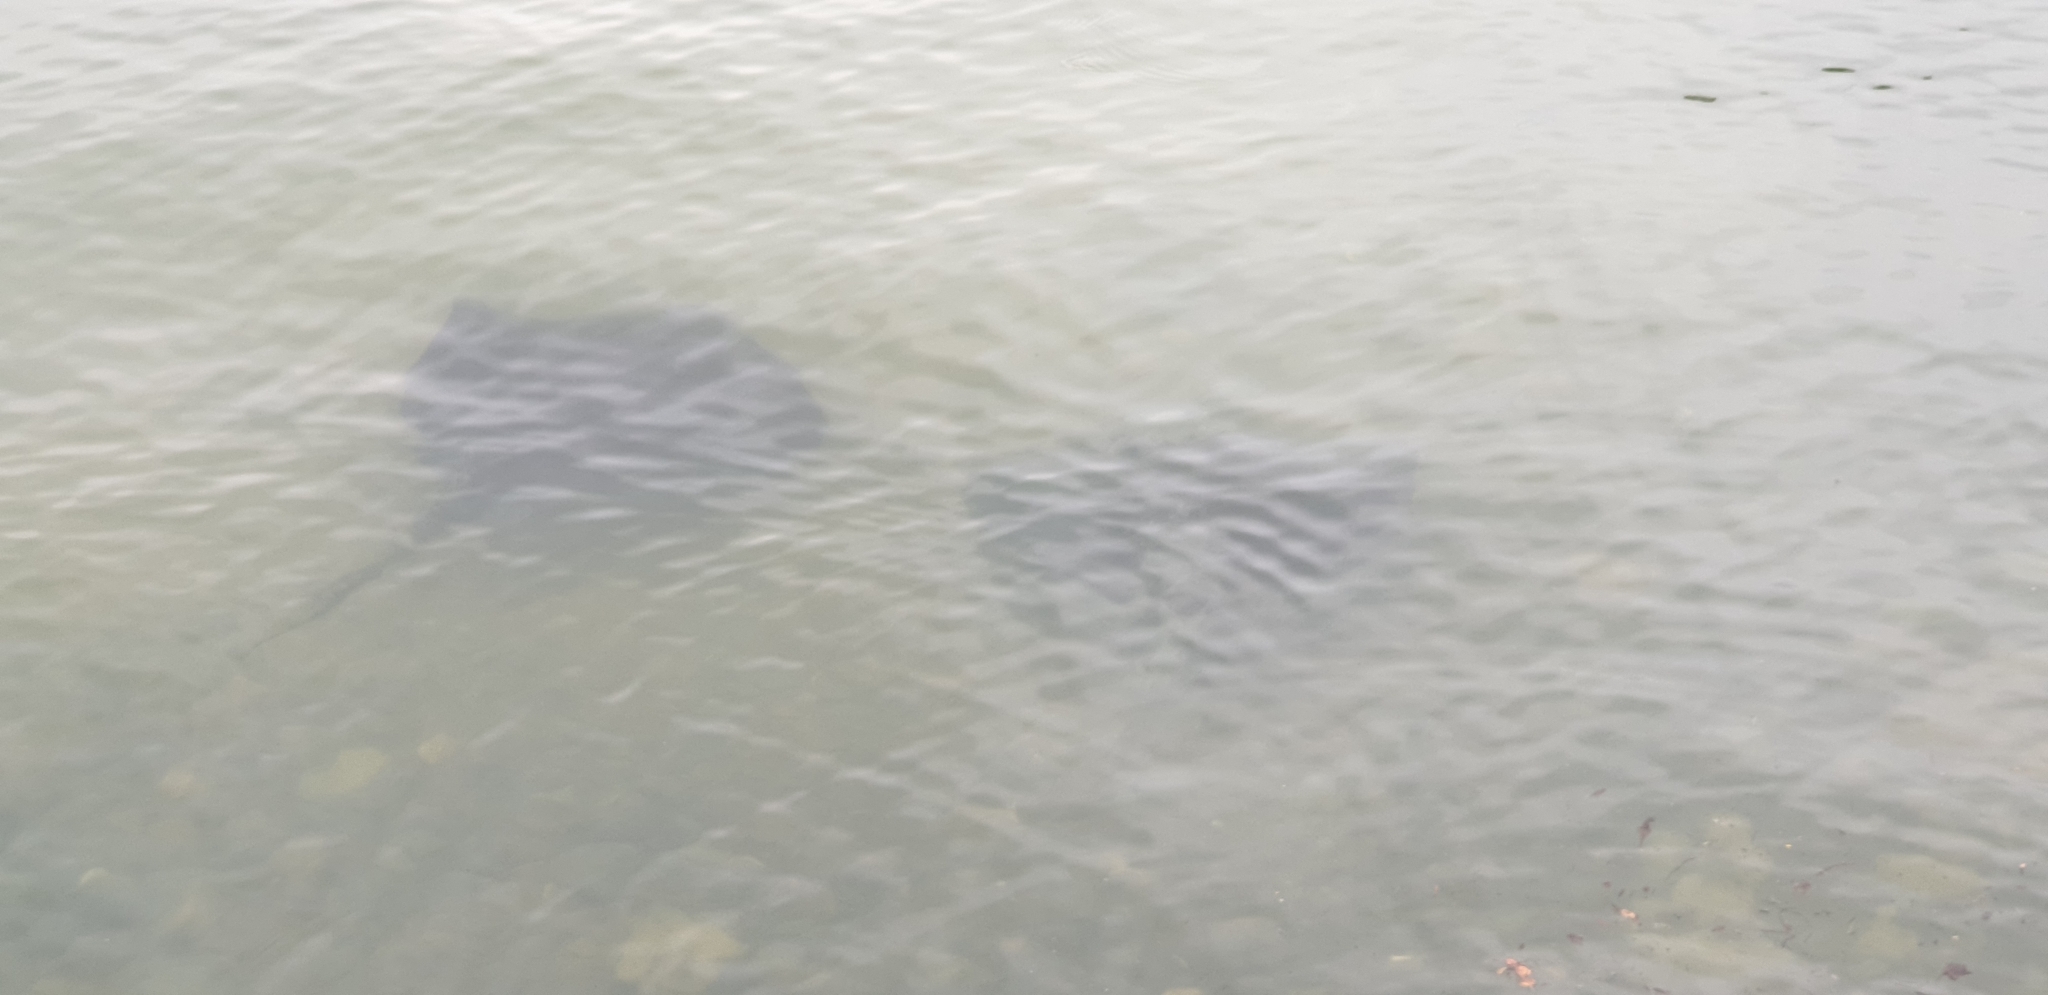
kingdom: Animalia
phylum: Chordata
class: Elasmobranchii
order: Myliobatiformes
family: Dasyatidae
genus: Bathytoshia
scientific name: Bathytoshia brevicaudata
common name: Short-tail stingray
